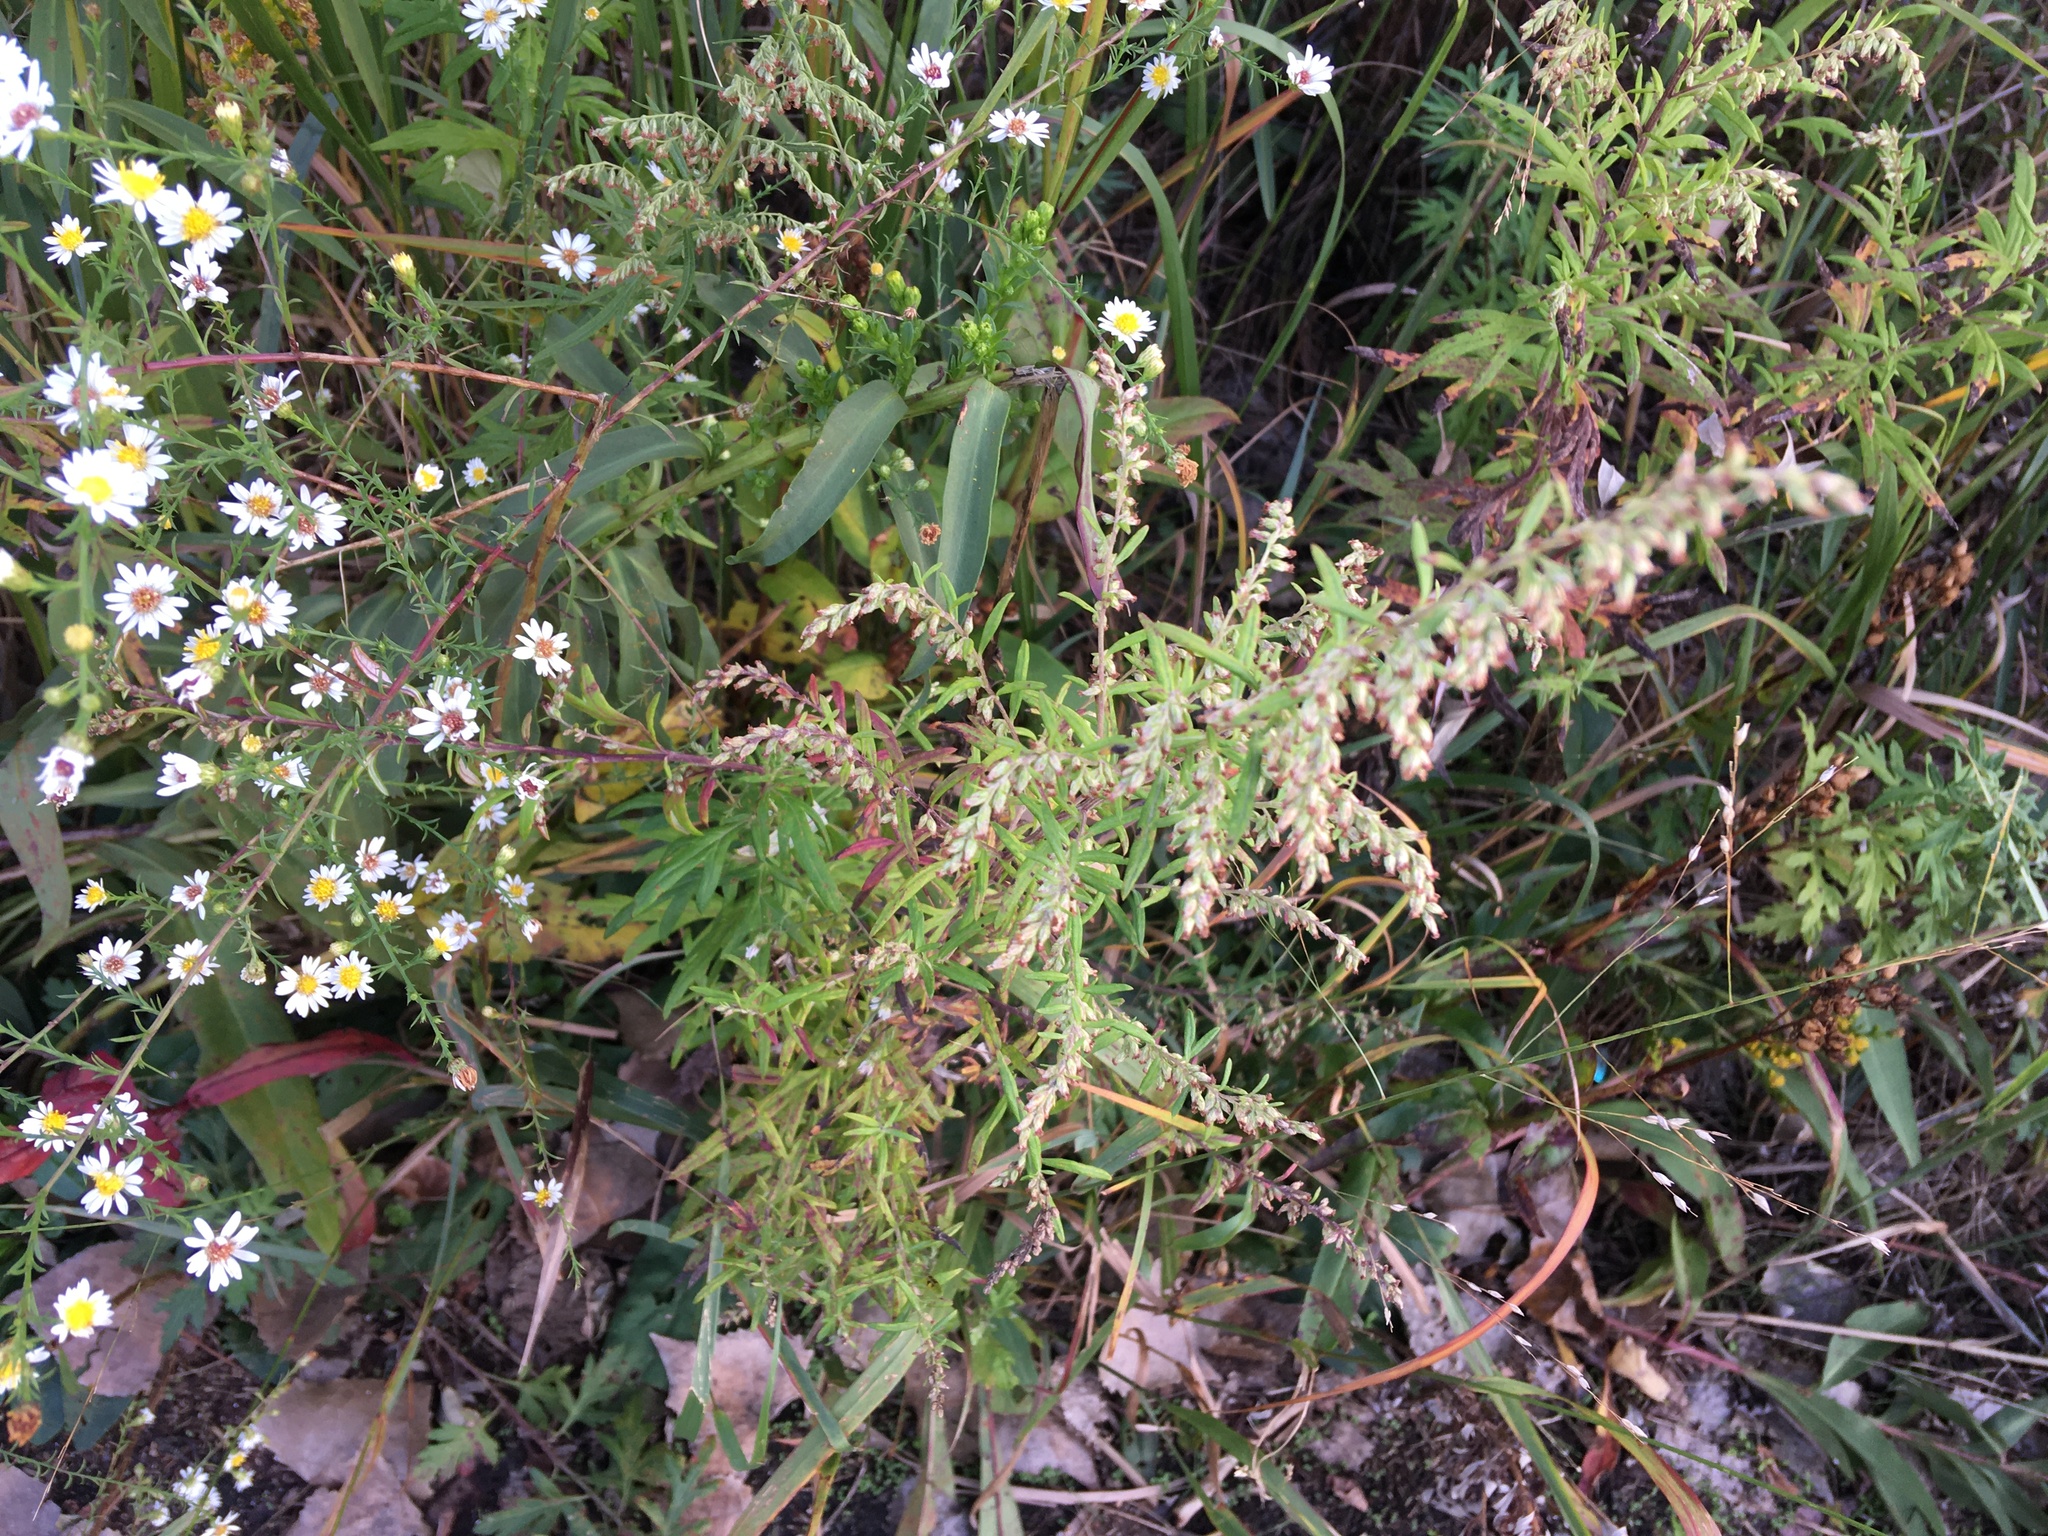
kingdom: Plantae
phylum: Tracheophyta
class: Magnoliopsida
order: Asterales
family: Asteraceae
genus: Artemisia
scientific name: Artemisia vulgaris
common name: Mugwort
